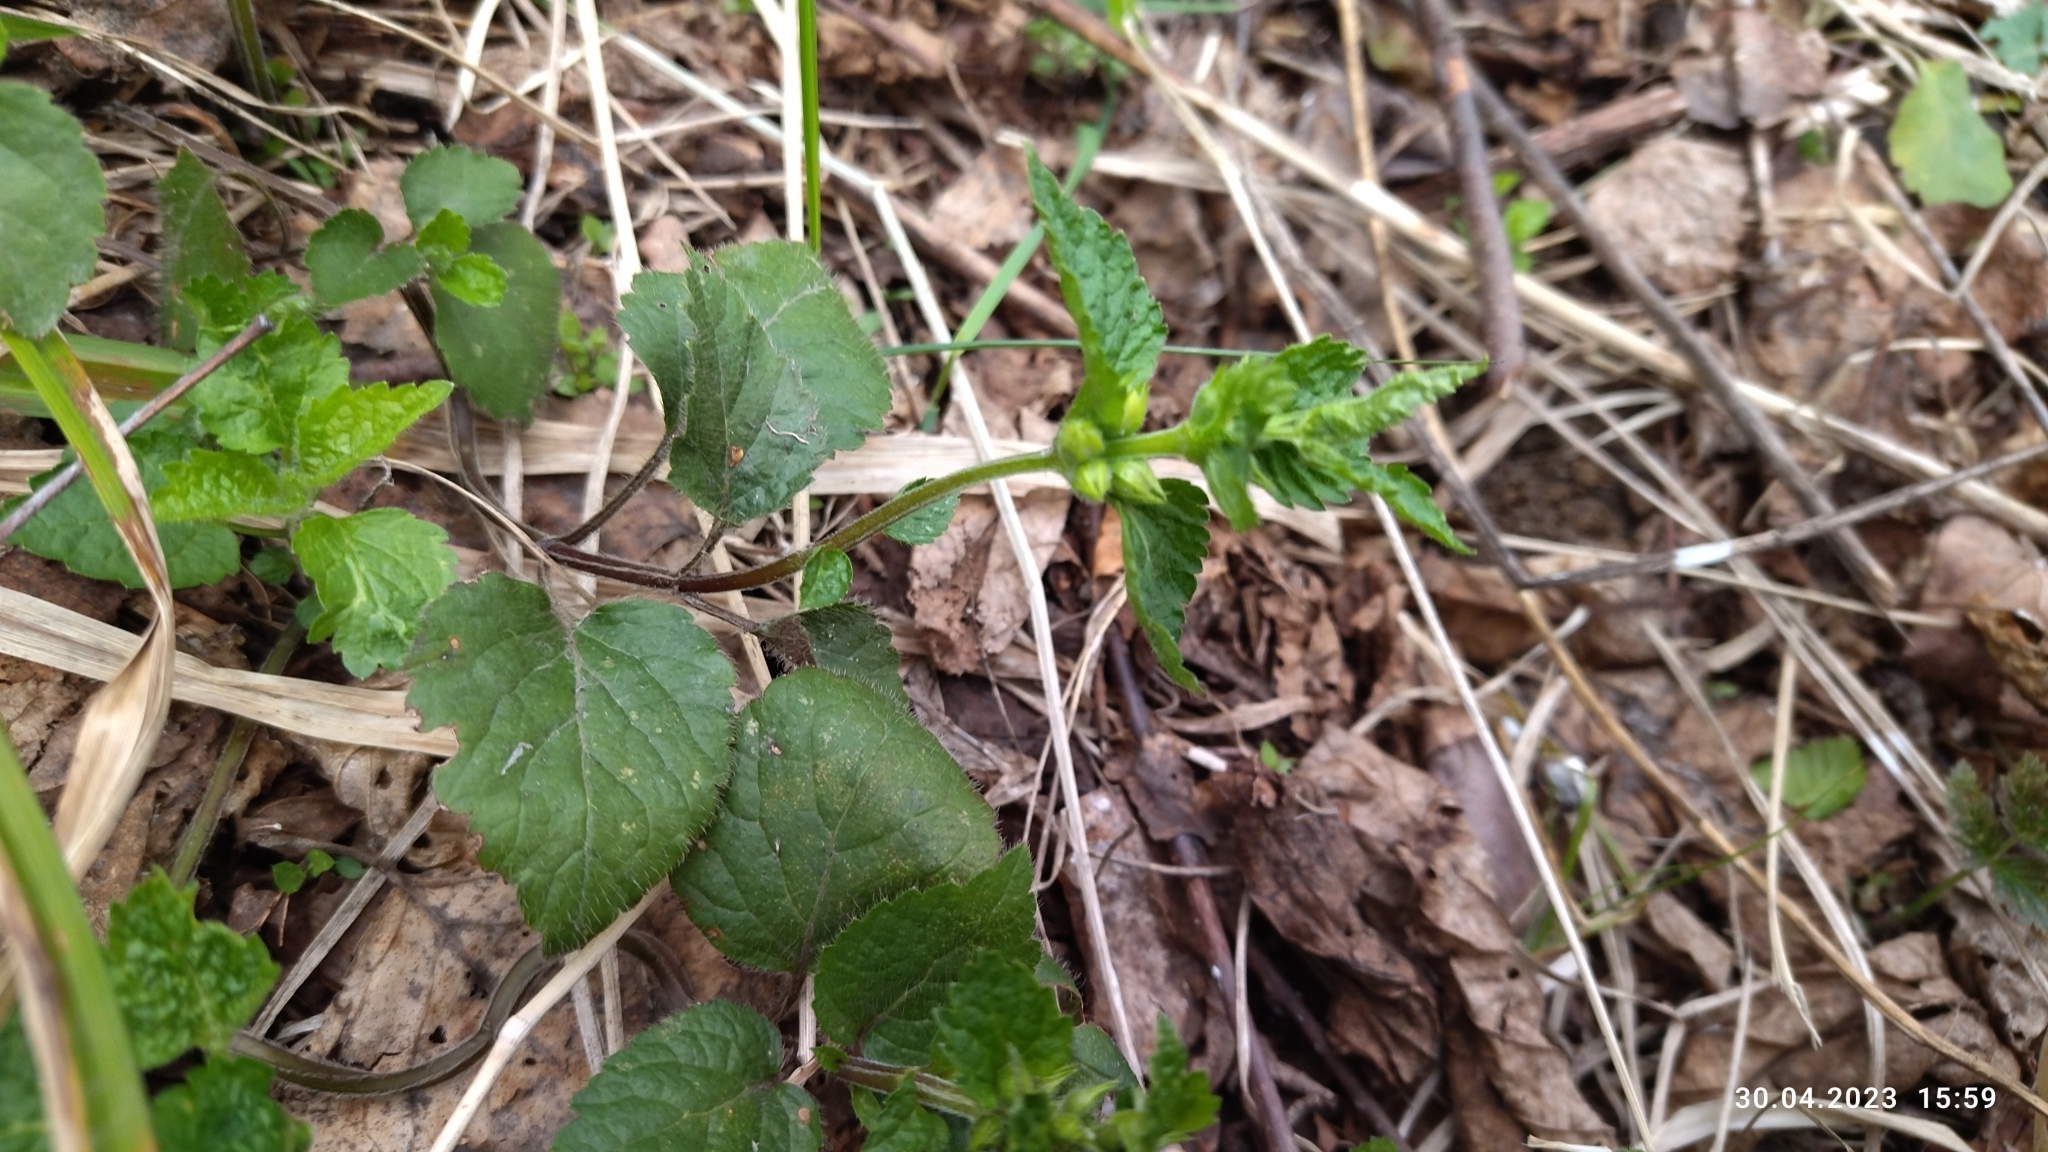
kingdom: Plantae
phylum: Tracheophyta
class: Magnoliopsida
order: Lamiales
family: Lamiaceae
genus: Lamium
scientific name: Lamium galeobdolon
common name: Yellow archangel
